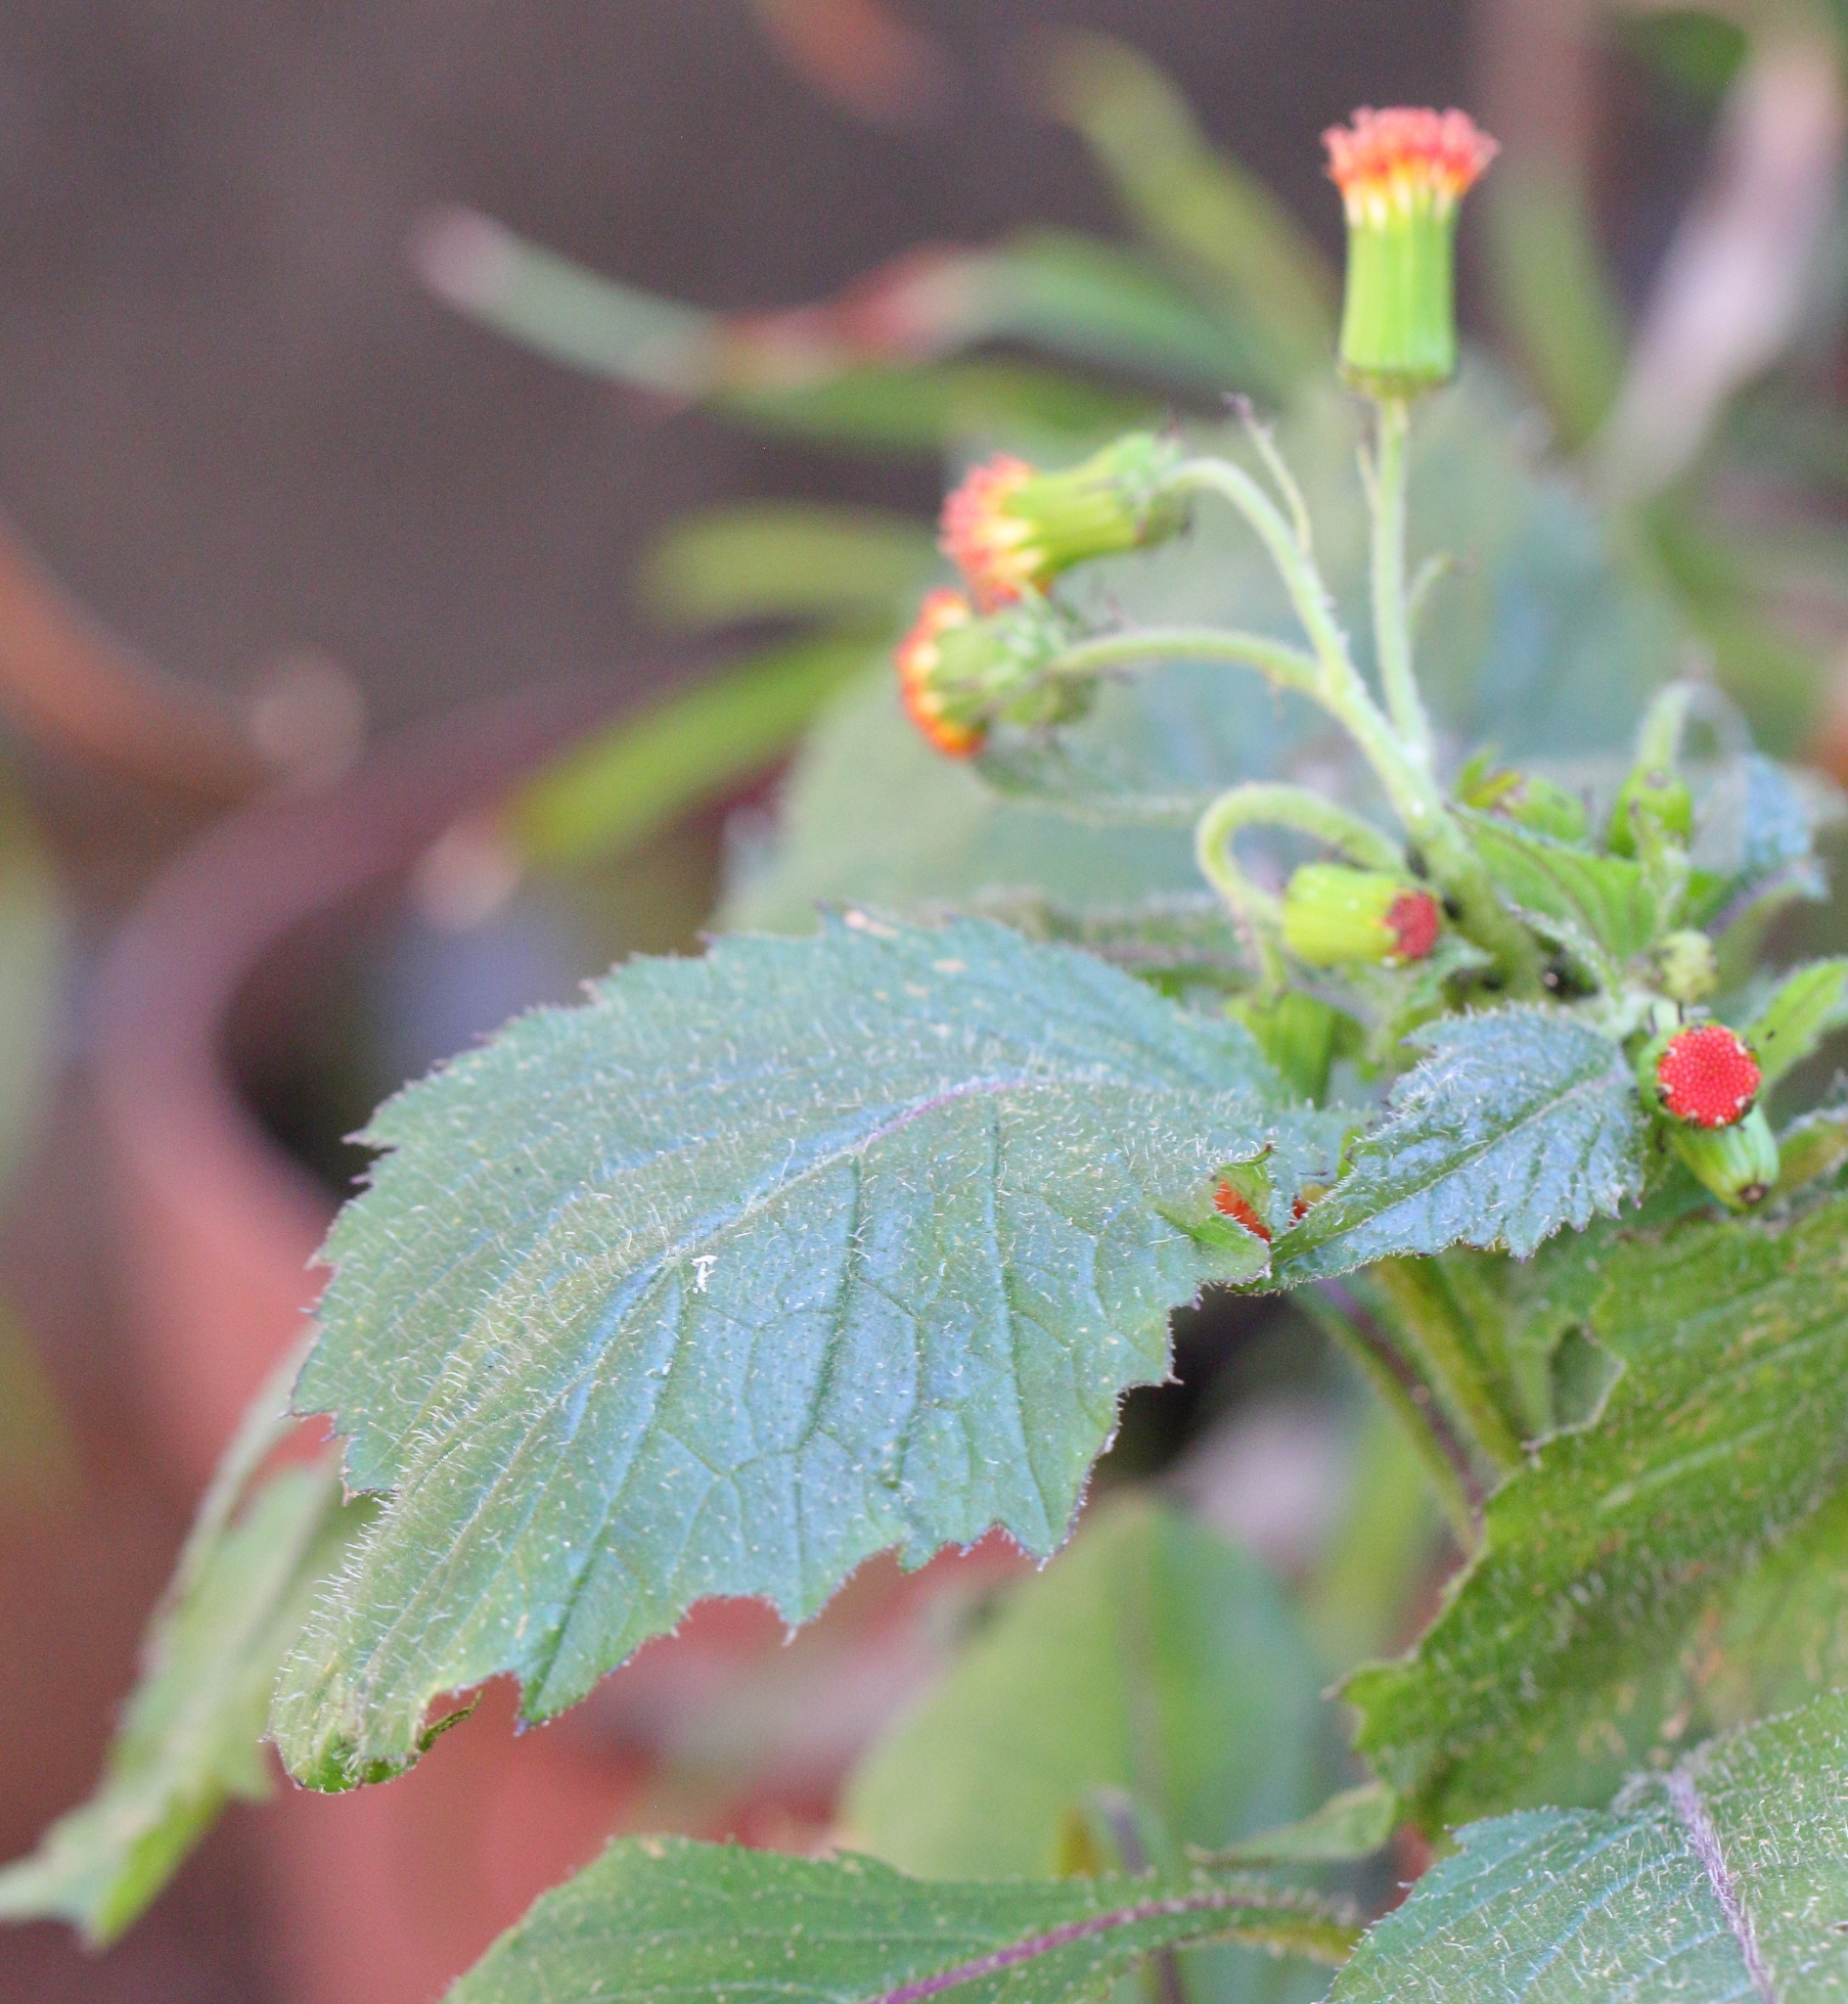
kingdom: Plantae
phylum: Tracheophyta
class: Magnoliopsida
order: Asterales
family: Asteraceae
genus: Crassocephalum
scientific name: Crassocephalum crepidioides
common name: Redflower ragleaf
